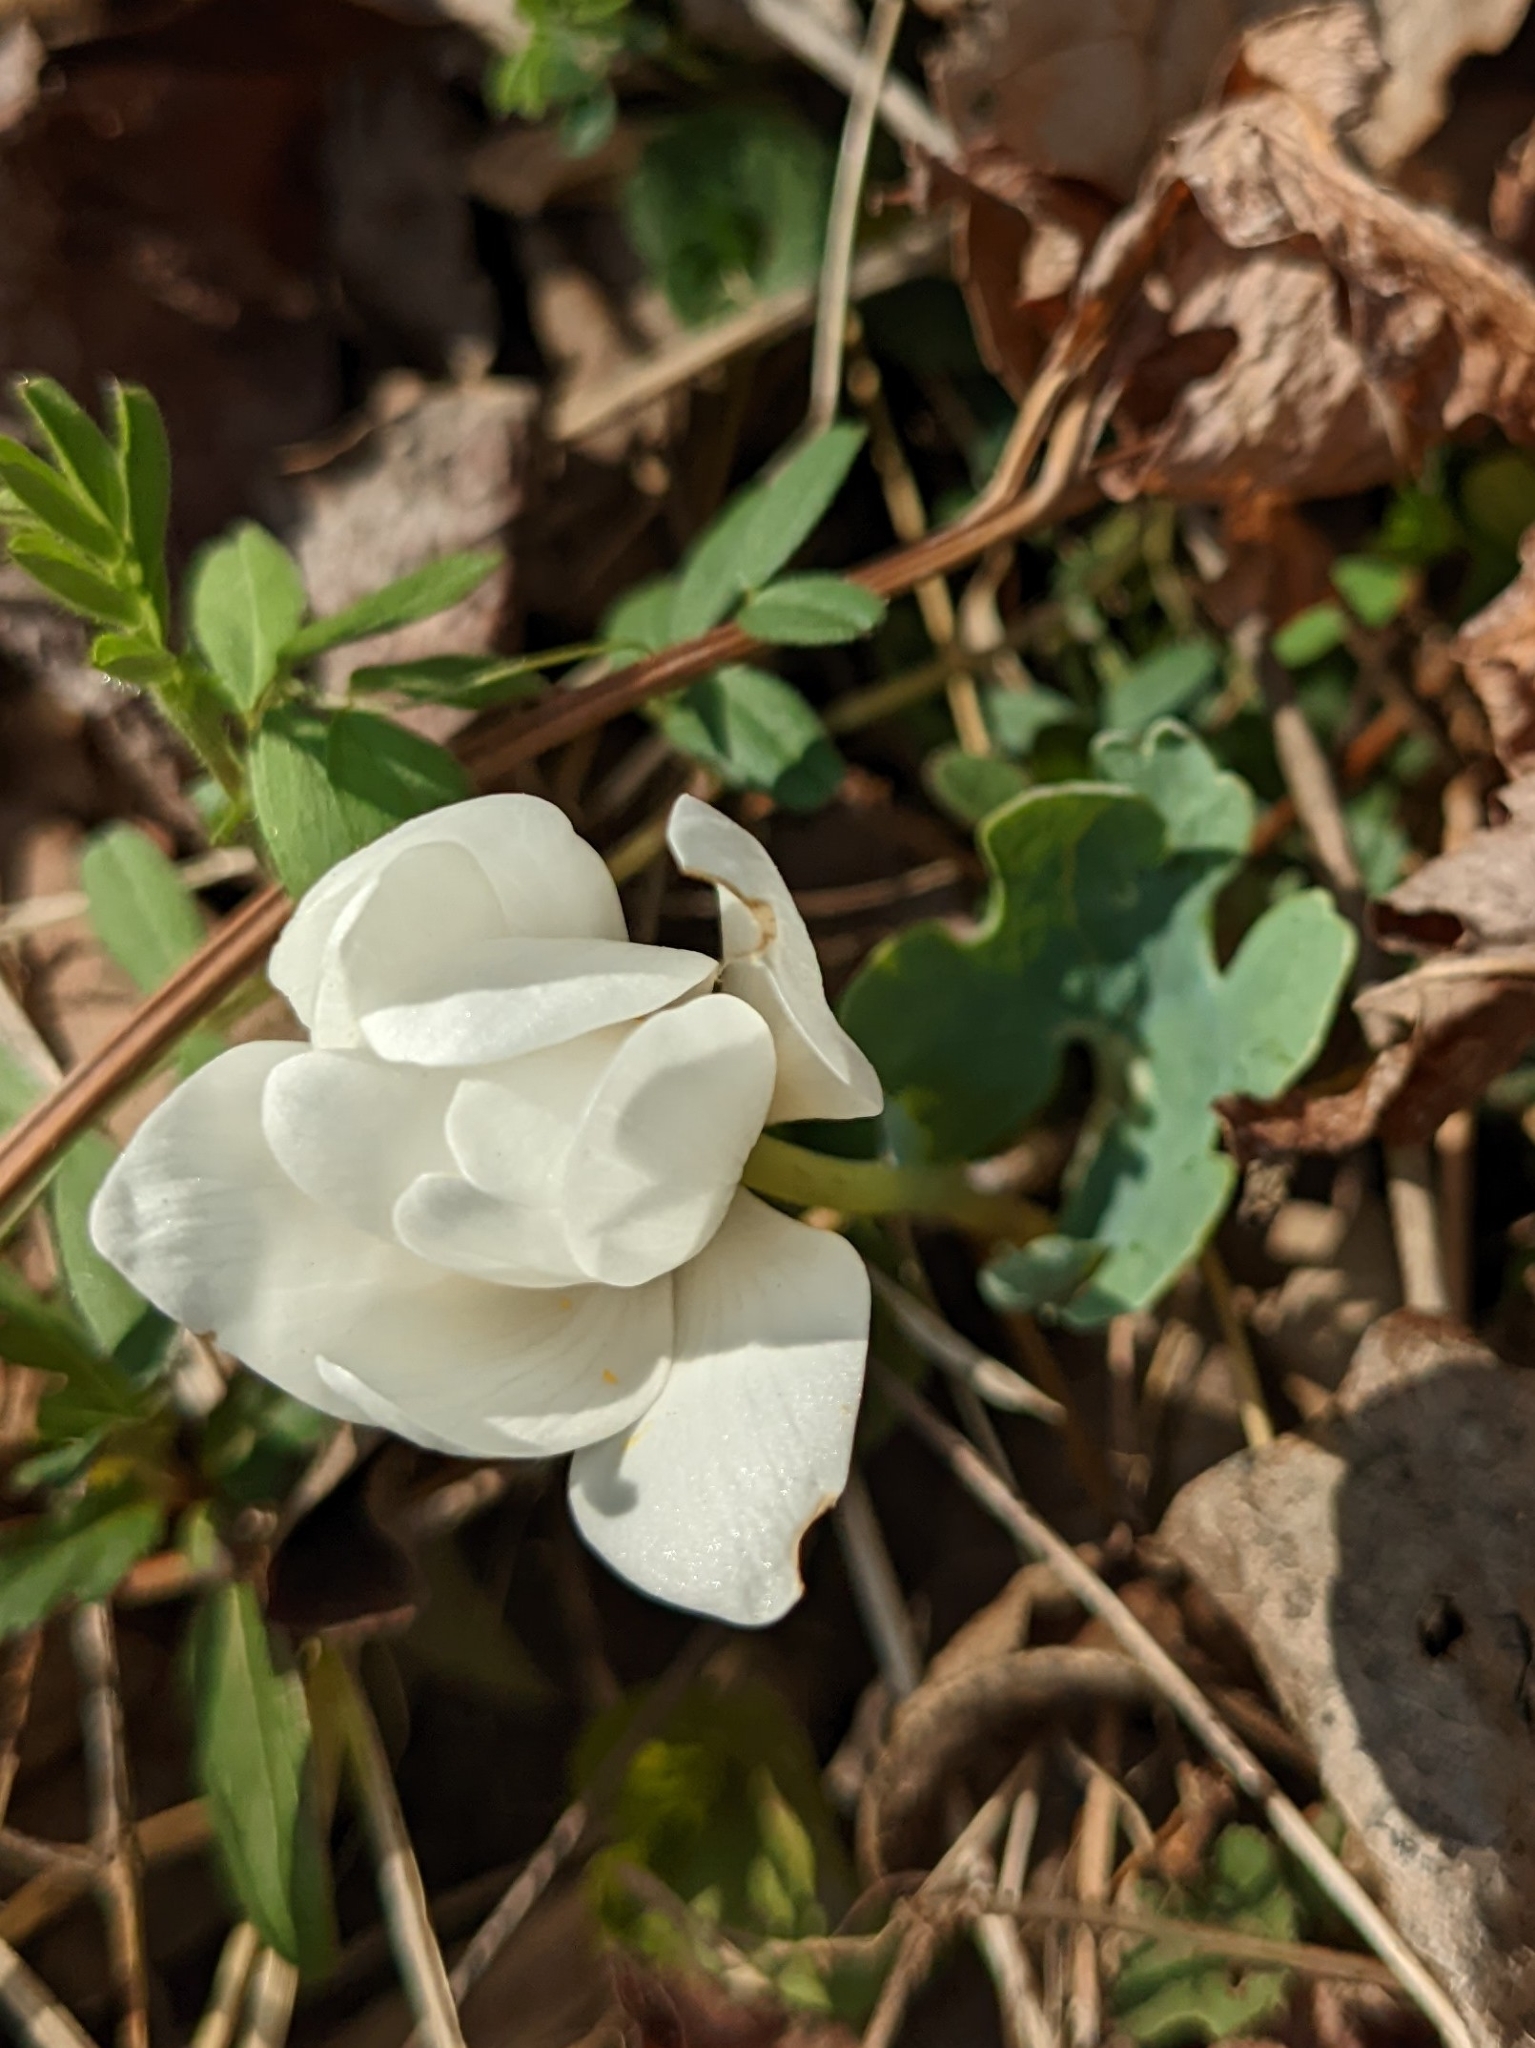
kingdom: Plantae
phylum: Tracheophyta
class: Magnoliopsida
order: Ranunculales
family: Papaveraceae
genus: Sanguinaria
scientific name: Sanguinaria canadensis
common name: Bloodroot
